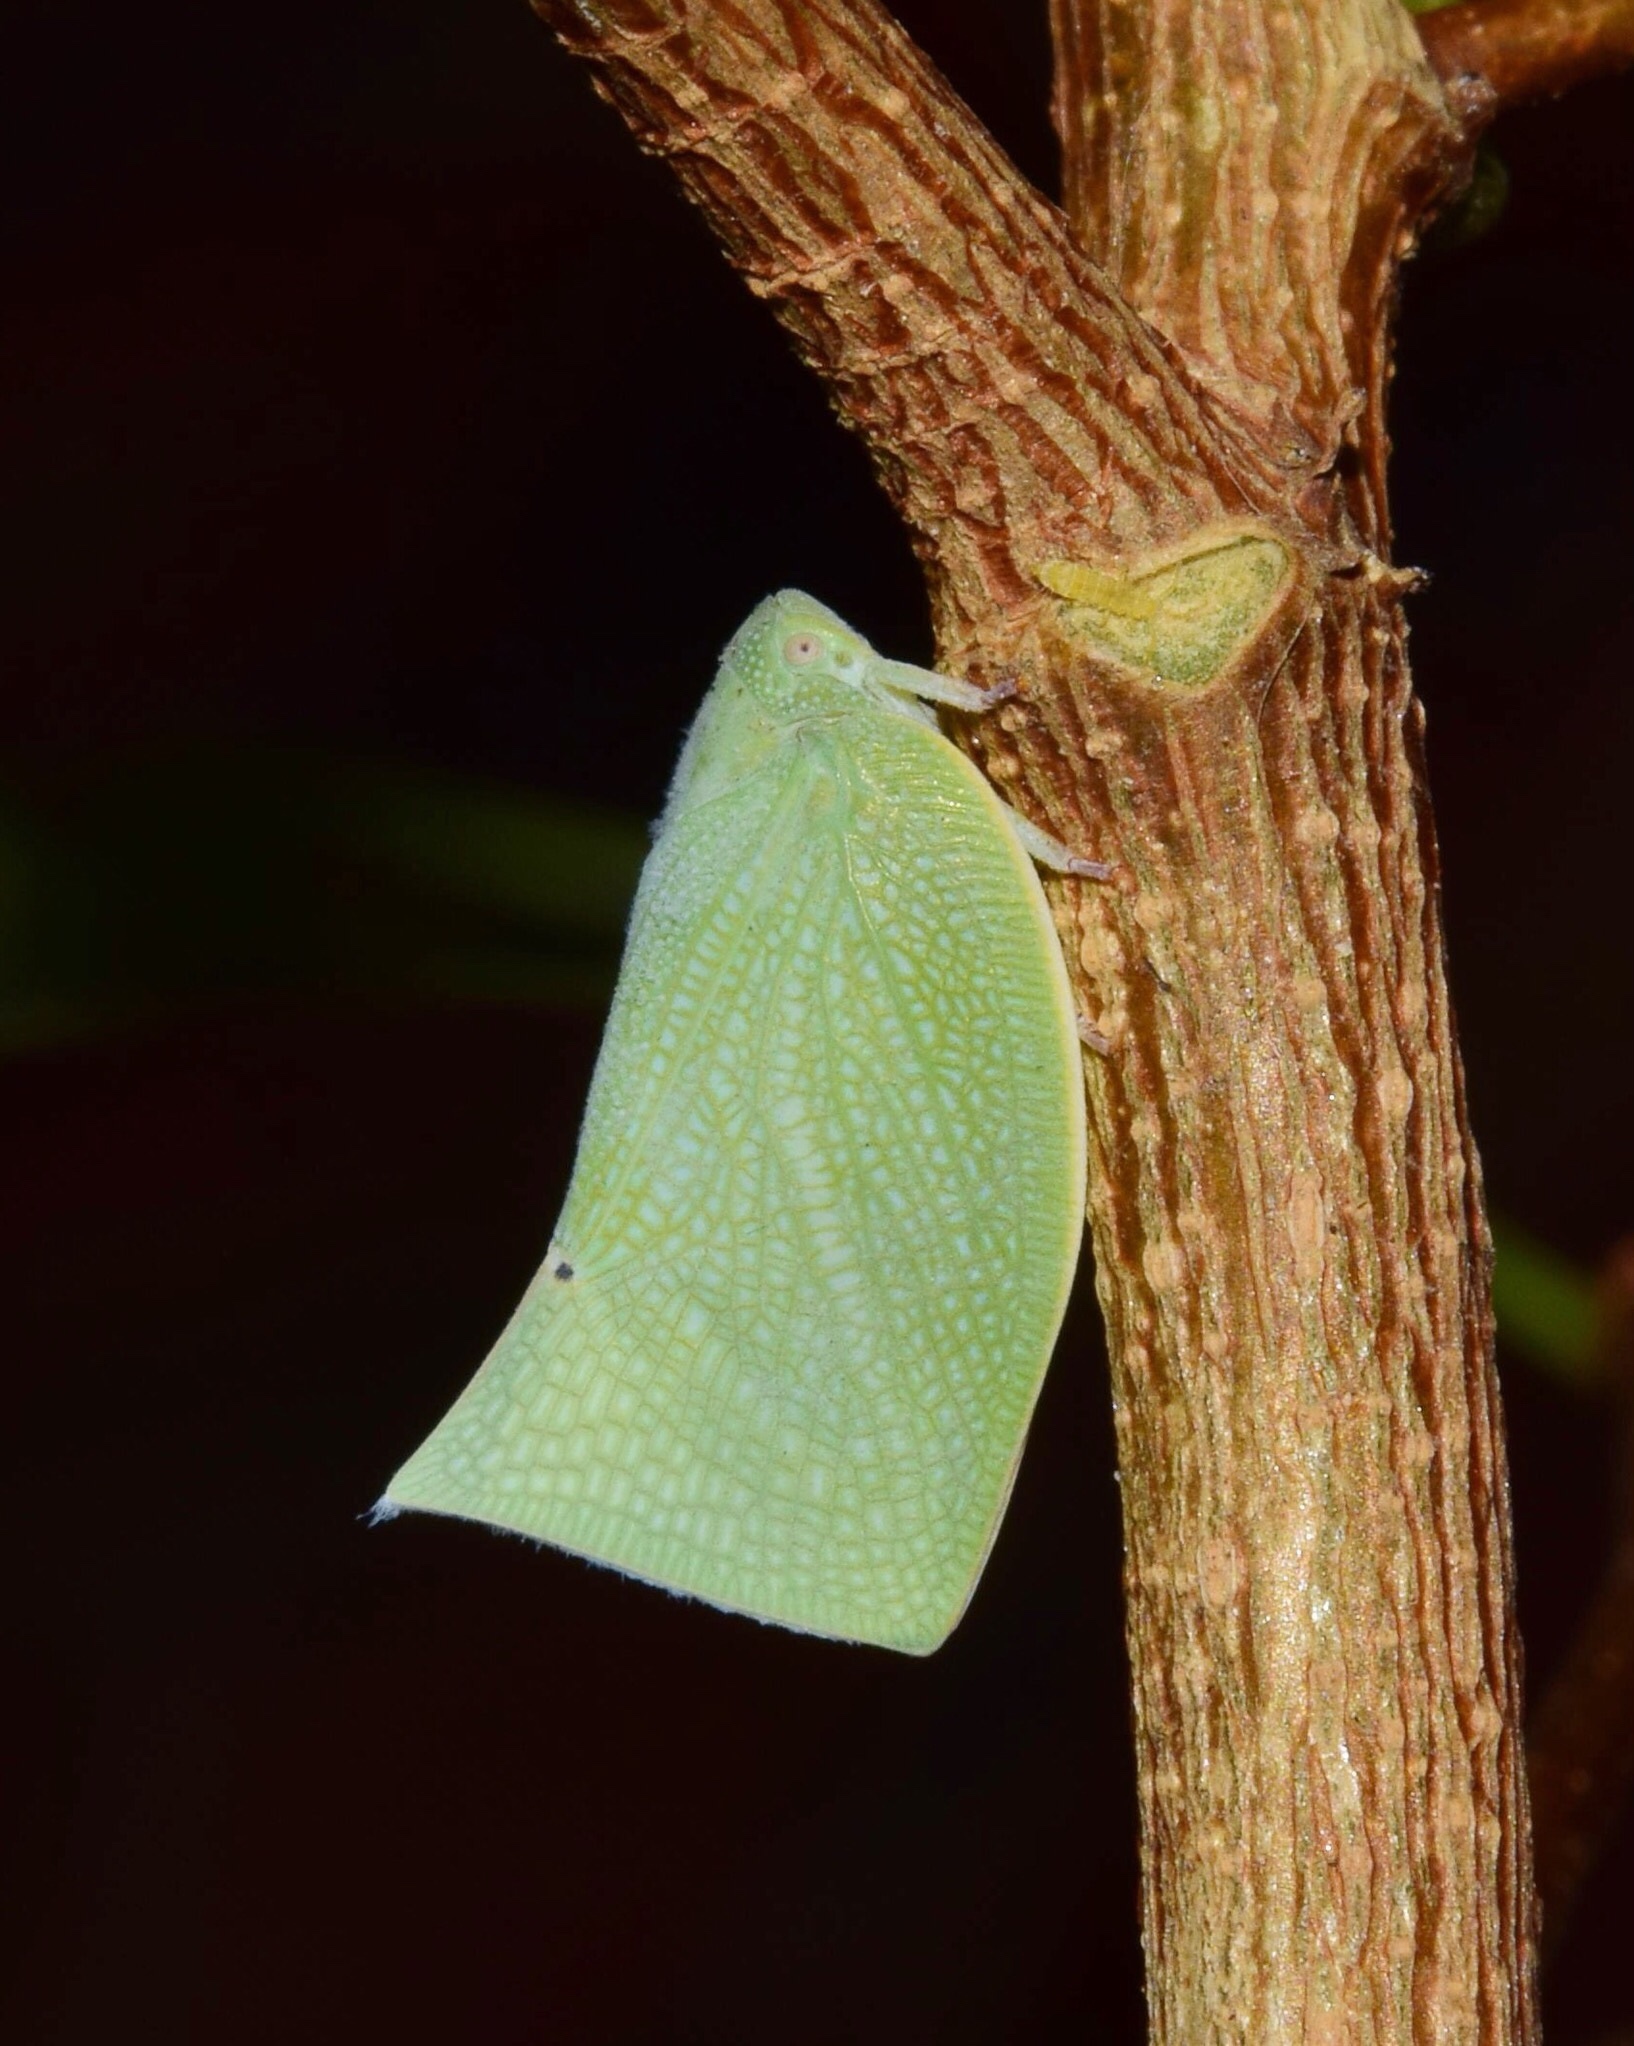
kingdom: Animalia
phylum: Arthropoda
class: Insecta
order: Hemiptera
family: Flatidae
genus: Cryptoflata
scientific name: Cryptoflata unipunctata
